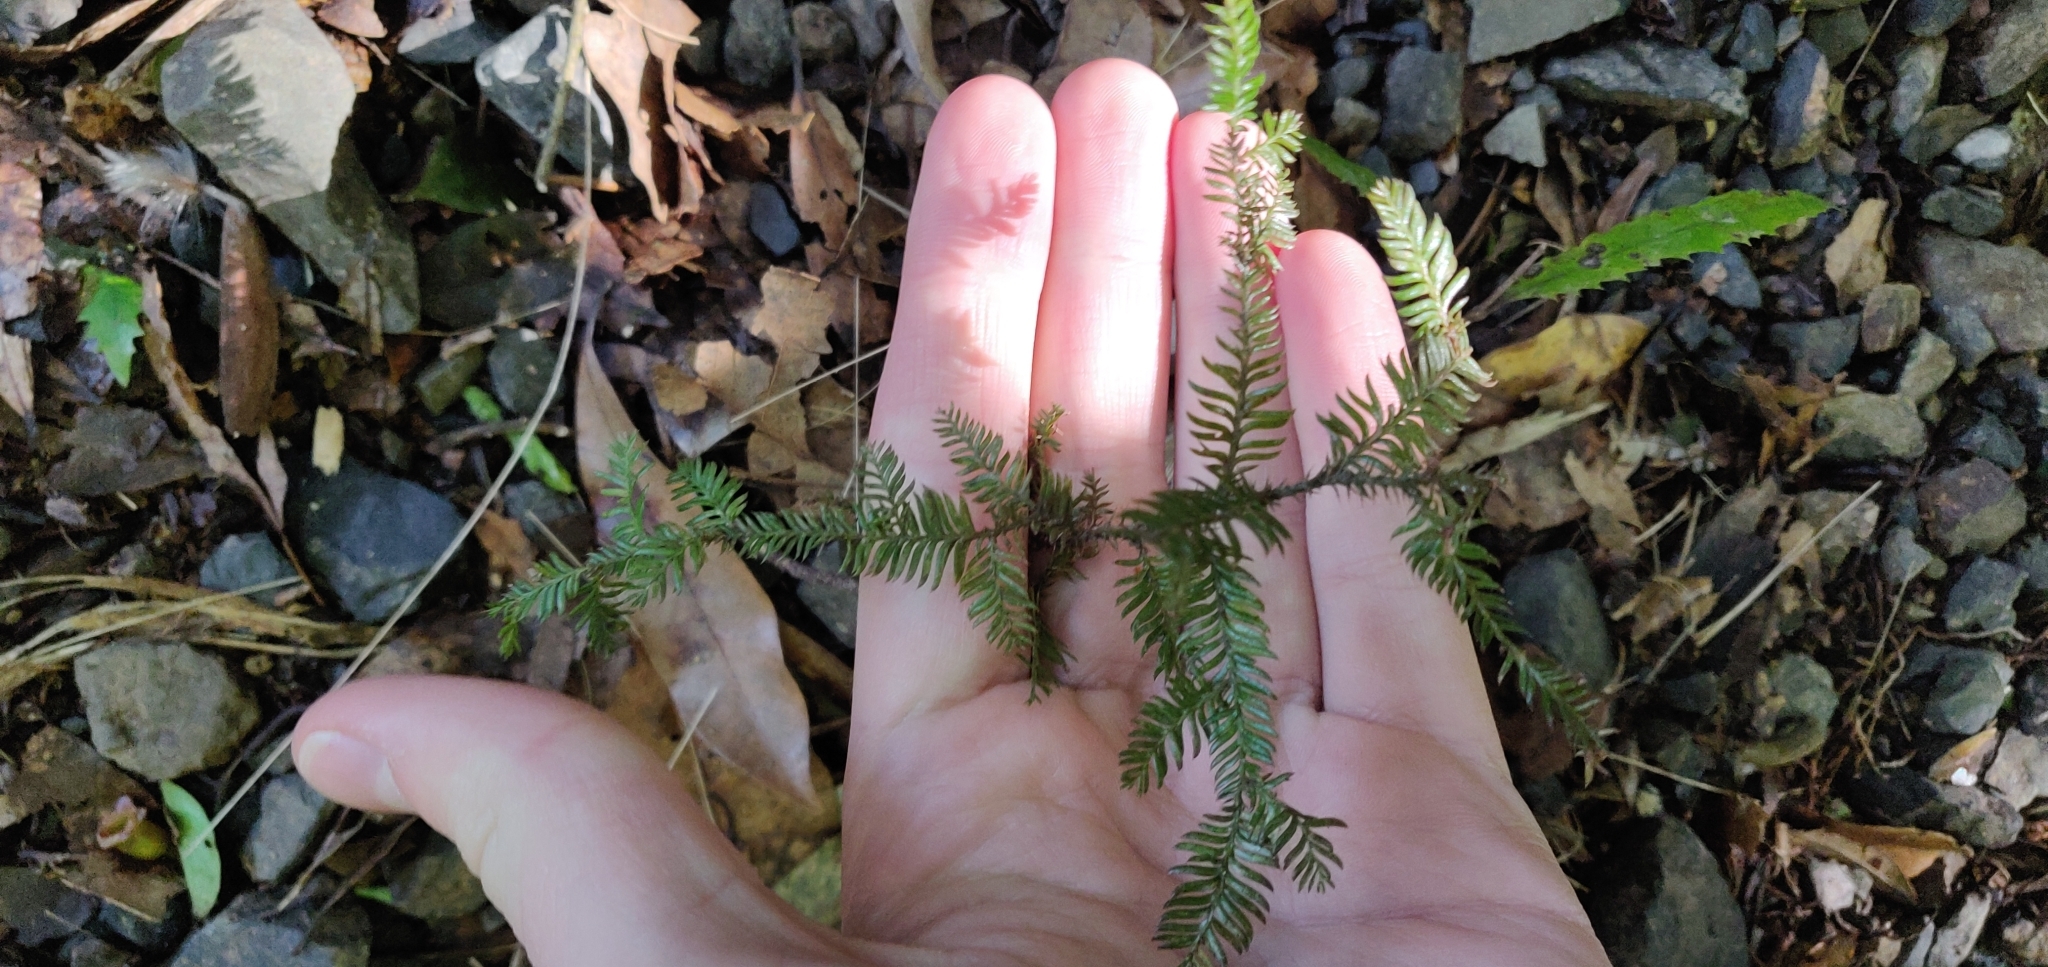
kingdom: Plantae
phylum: Tracheophyta
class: Pinopsida
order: Pinales
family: Podocarpaceae
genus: Dacrycarpus
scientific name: Dacrycarpus dacrydioides
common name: White pine
